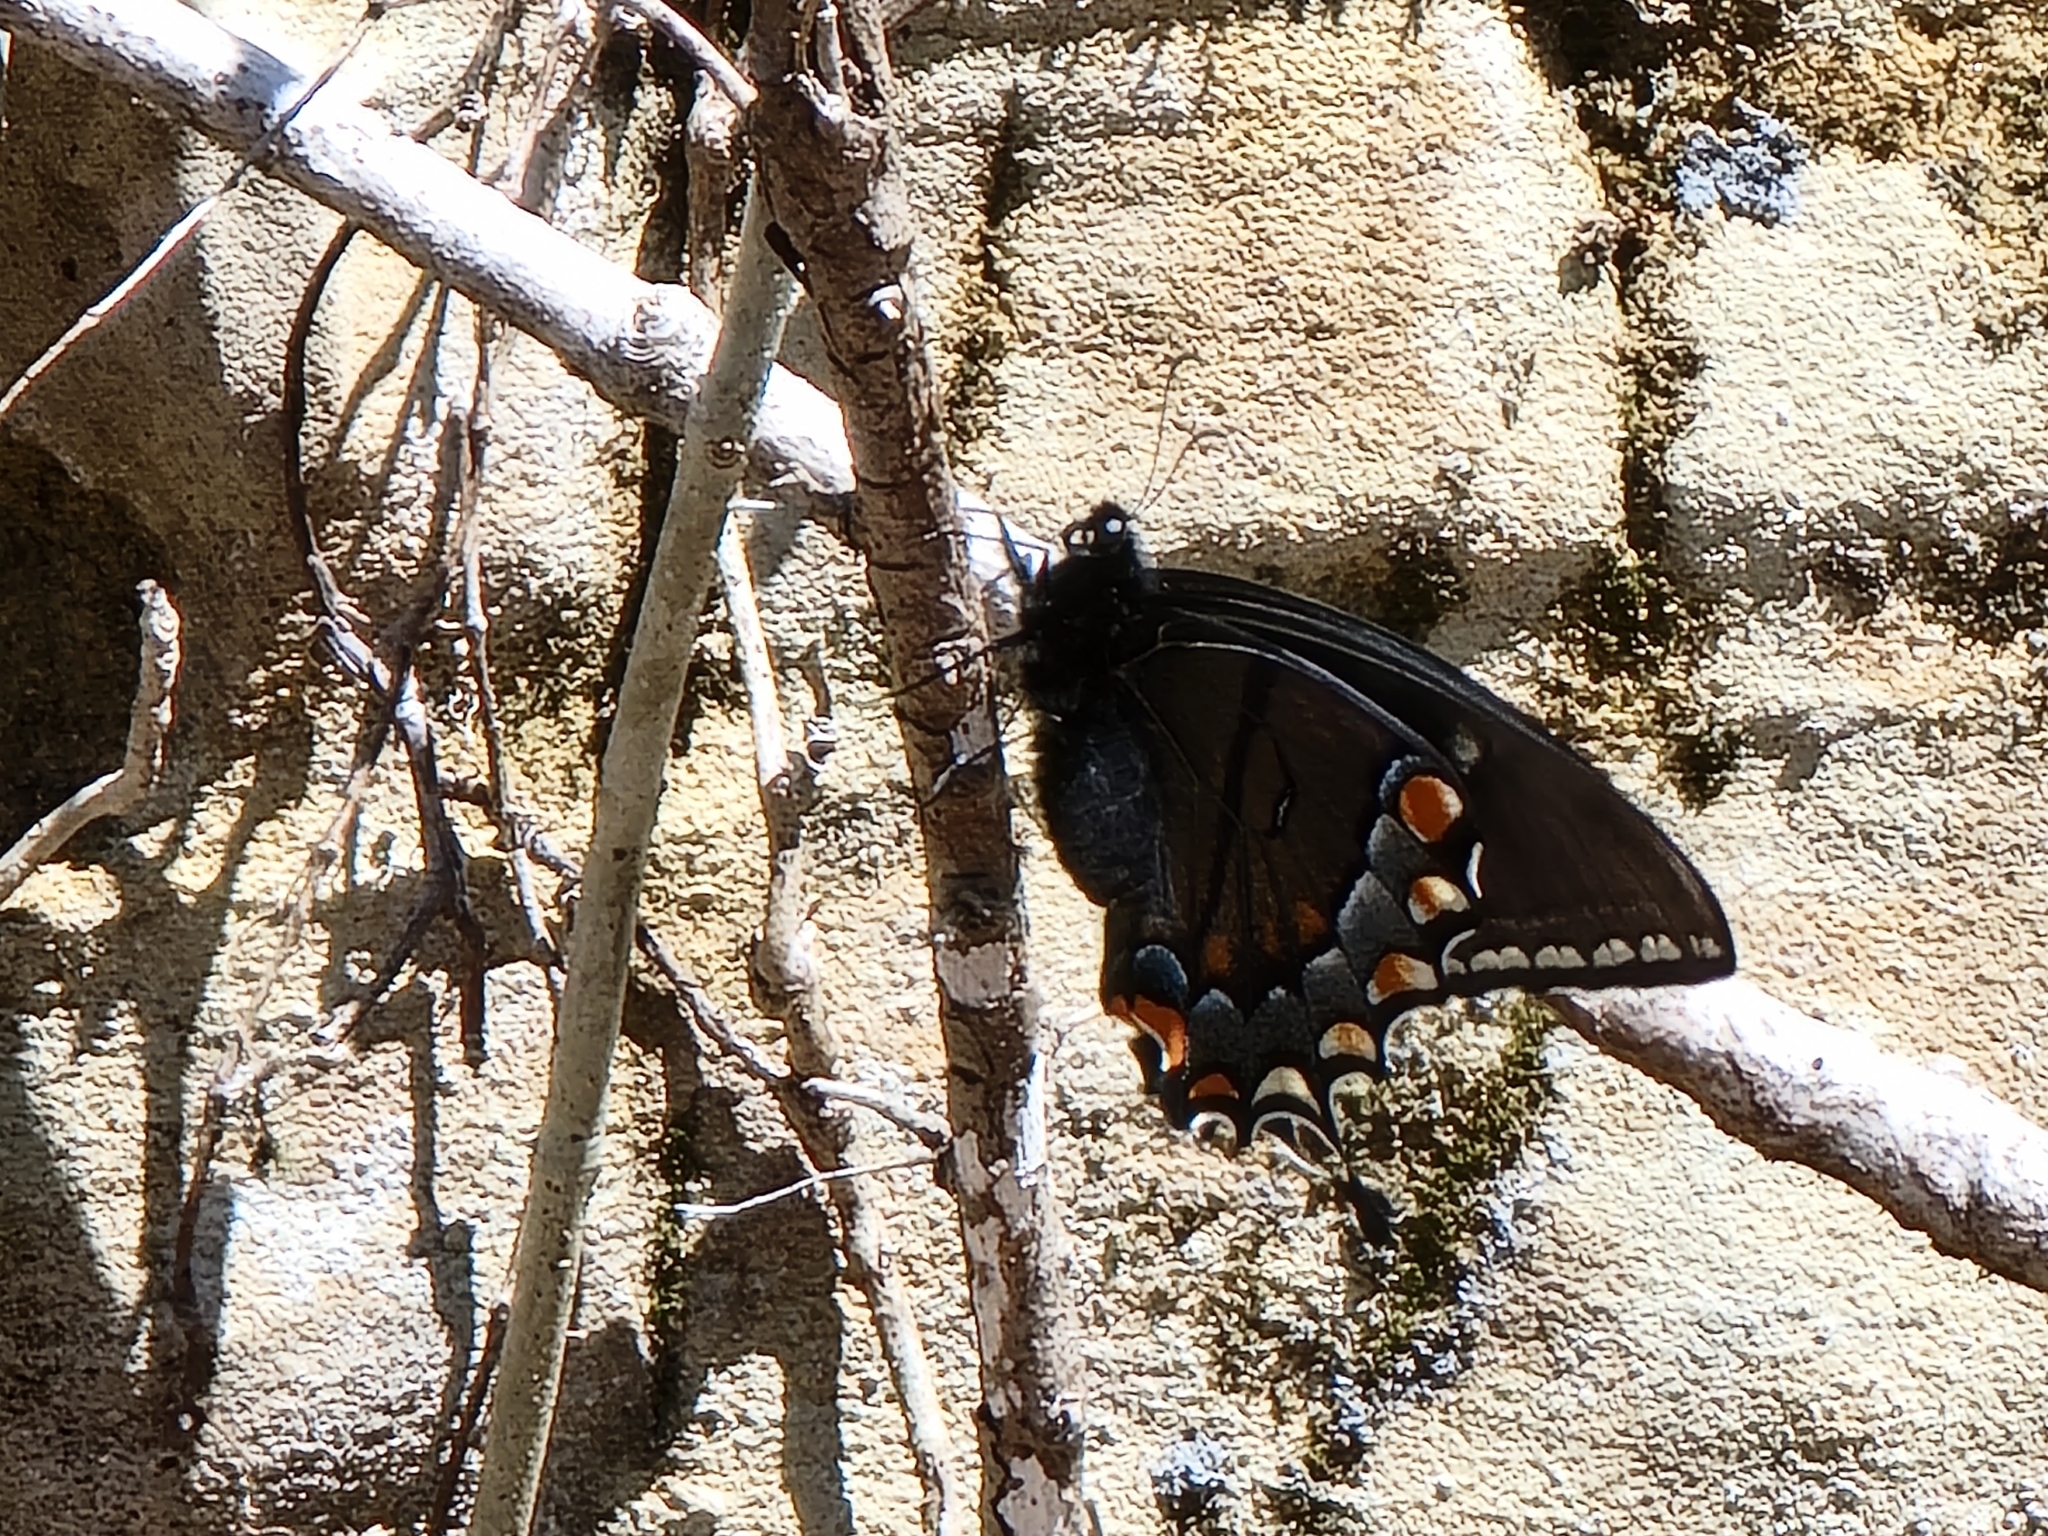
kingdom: Animalia
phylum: Arthropoda
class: Insecta
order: Lepidoptera
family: Papilionidae
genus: Papilio
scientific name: Papilio glaucus
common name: Tiger swallowtail
